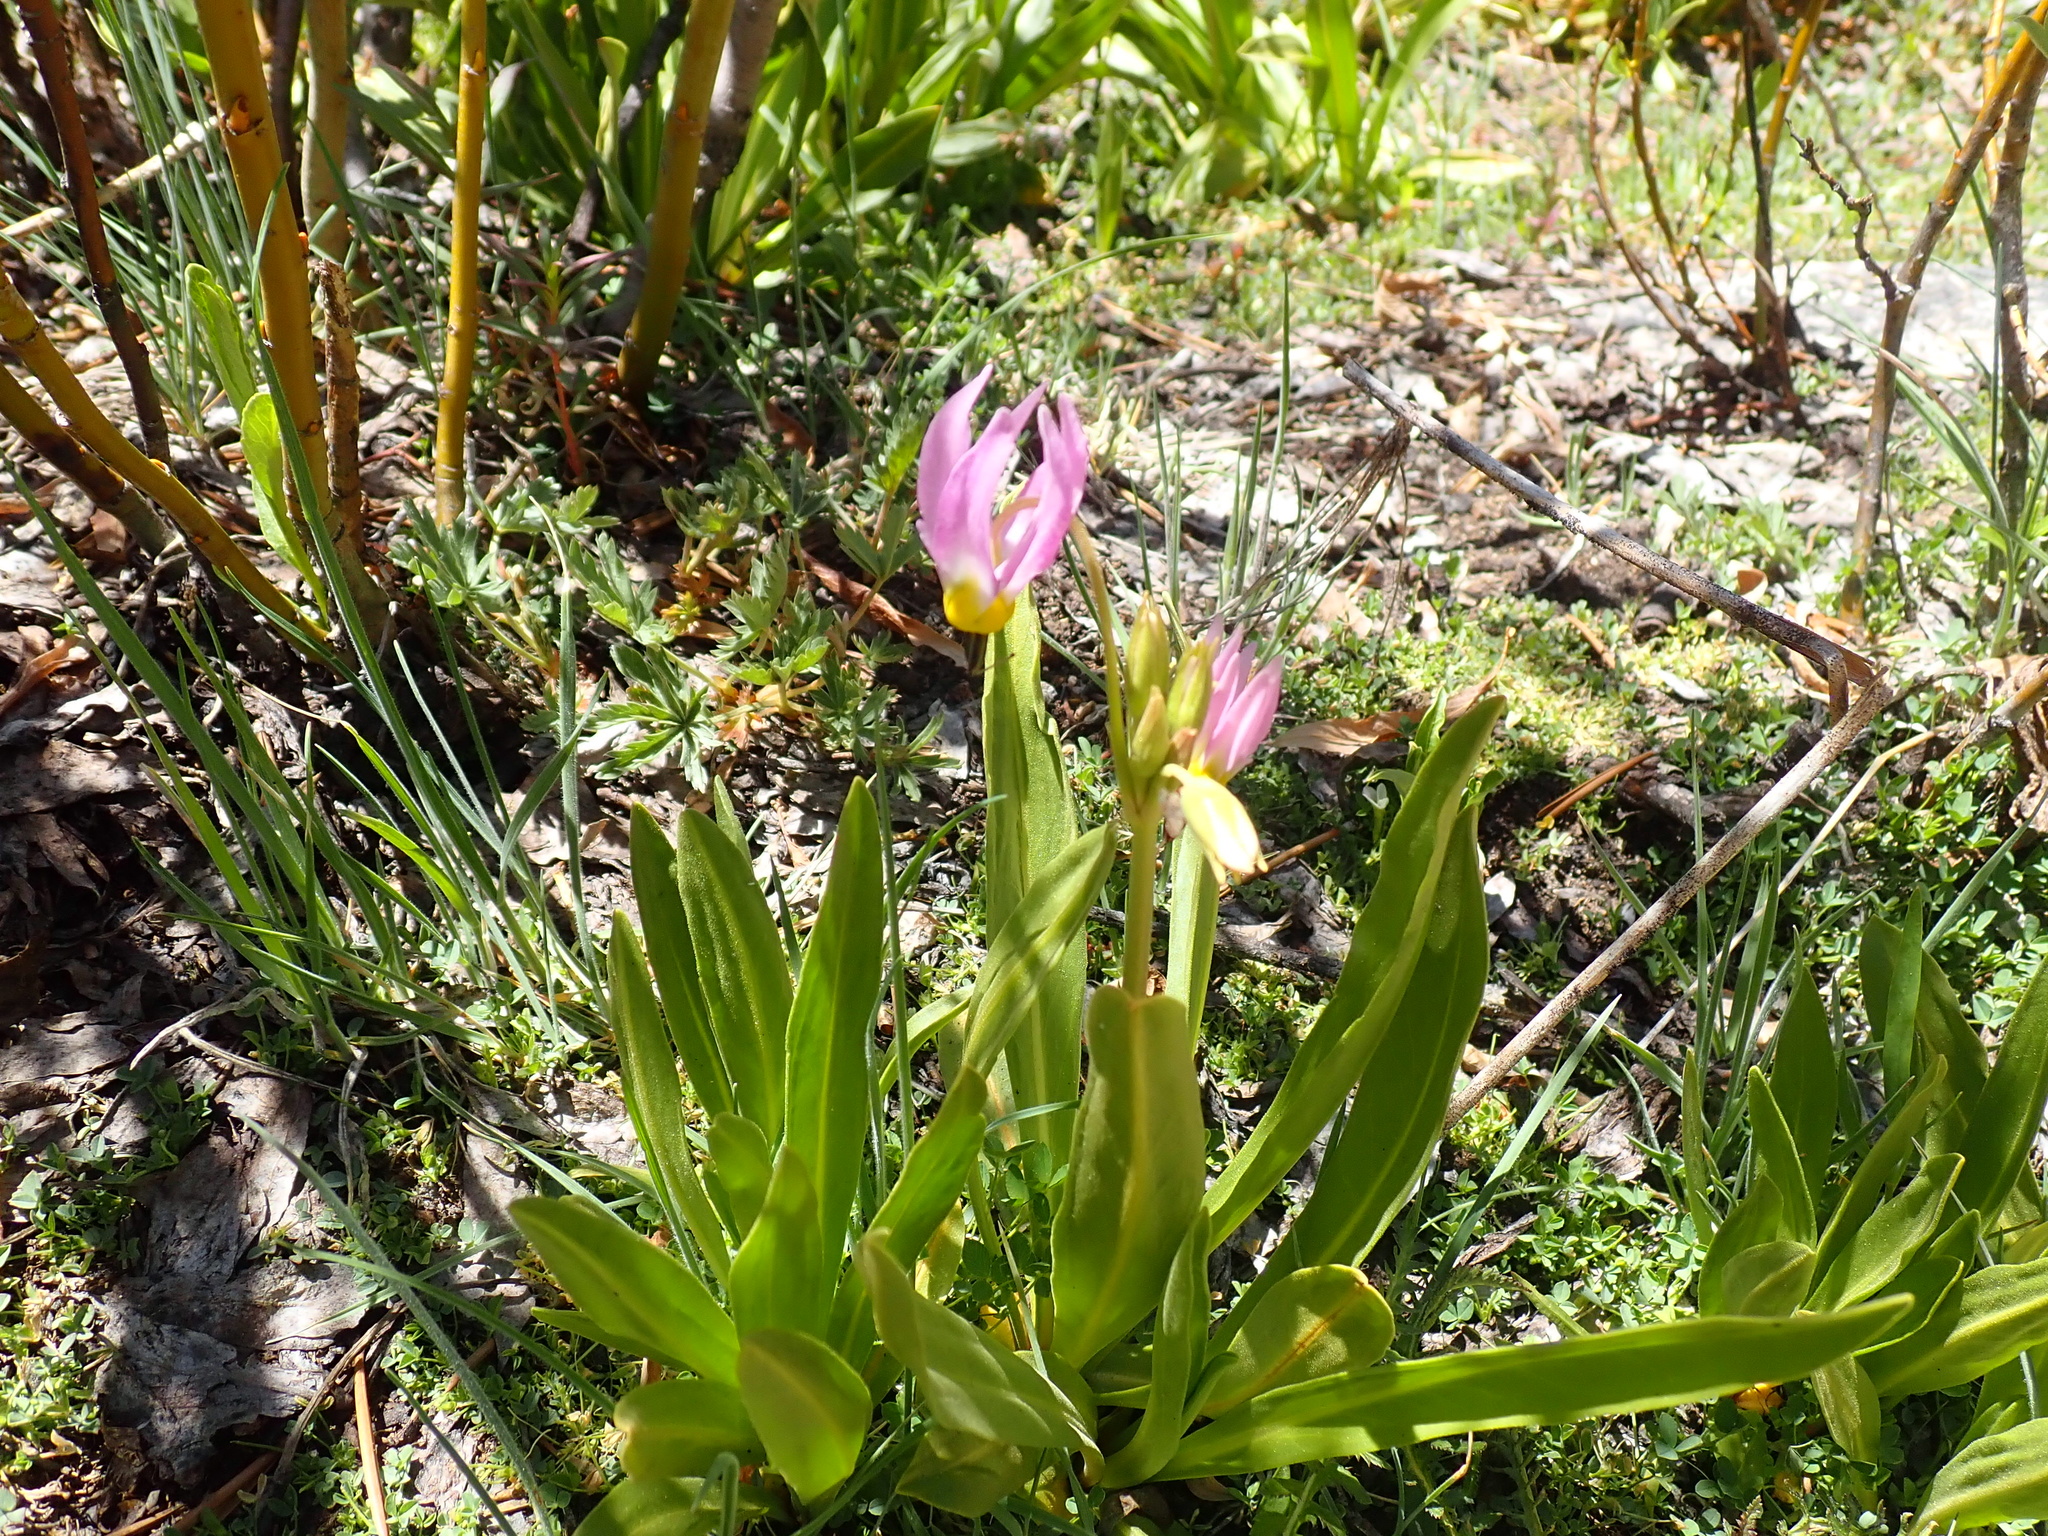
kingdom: Plantae
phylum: Tracheophyta
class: Magnoliopsida
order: Ericales
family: Primulaceae
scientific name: Primulaceae
